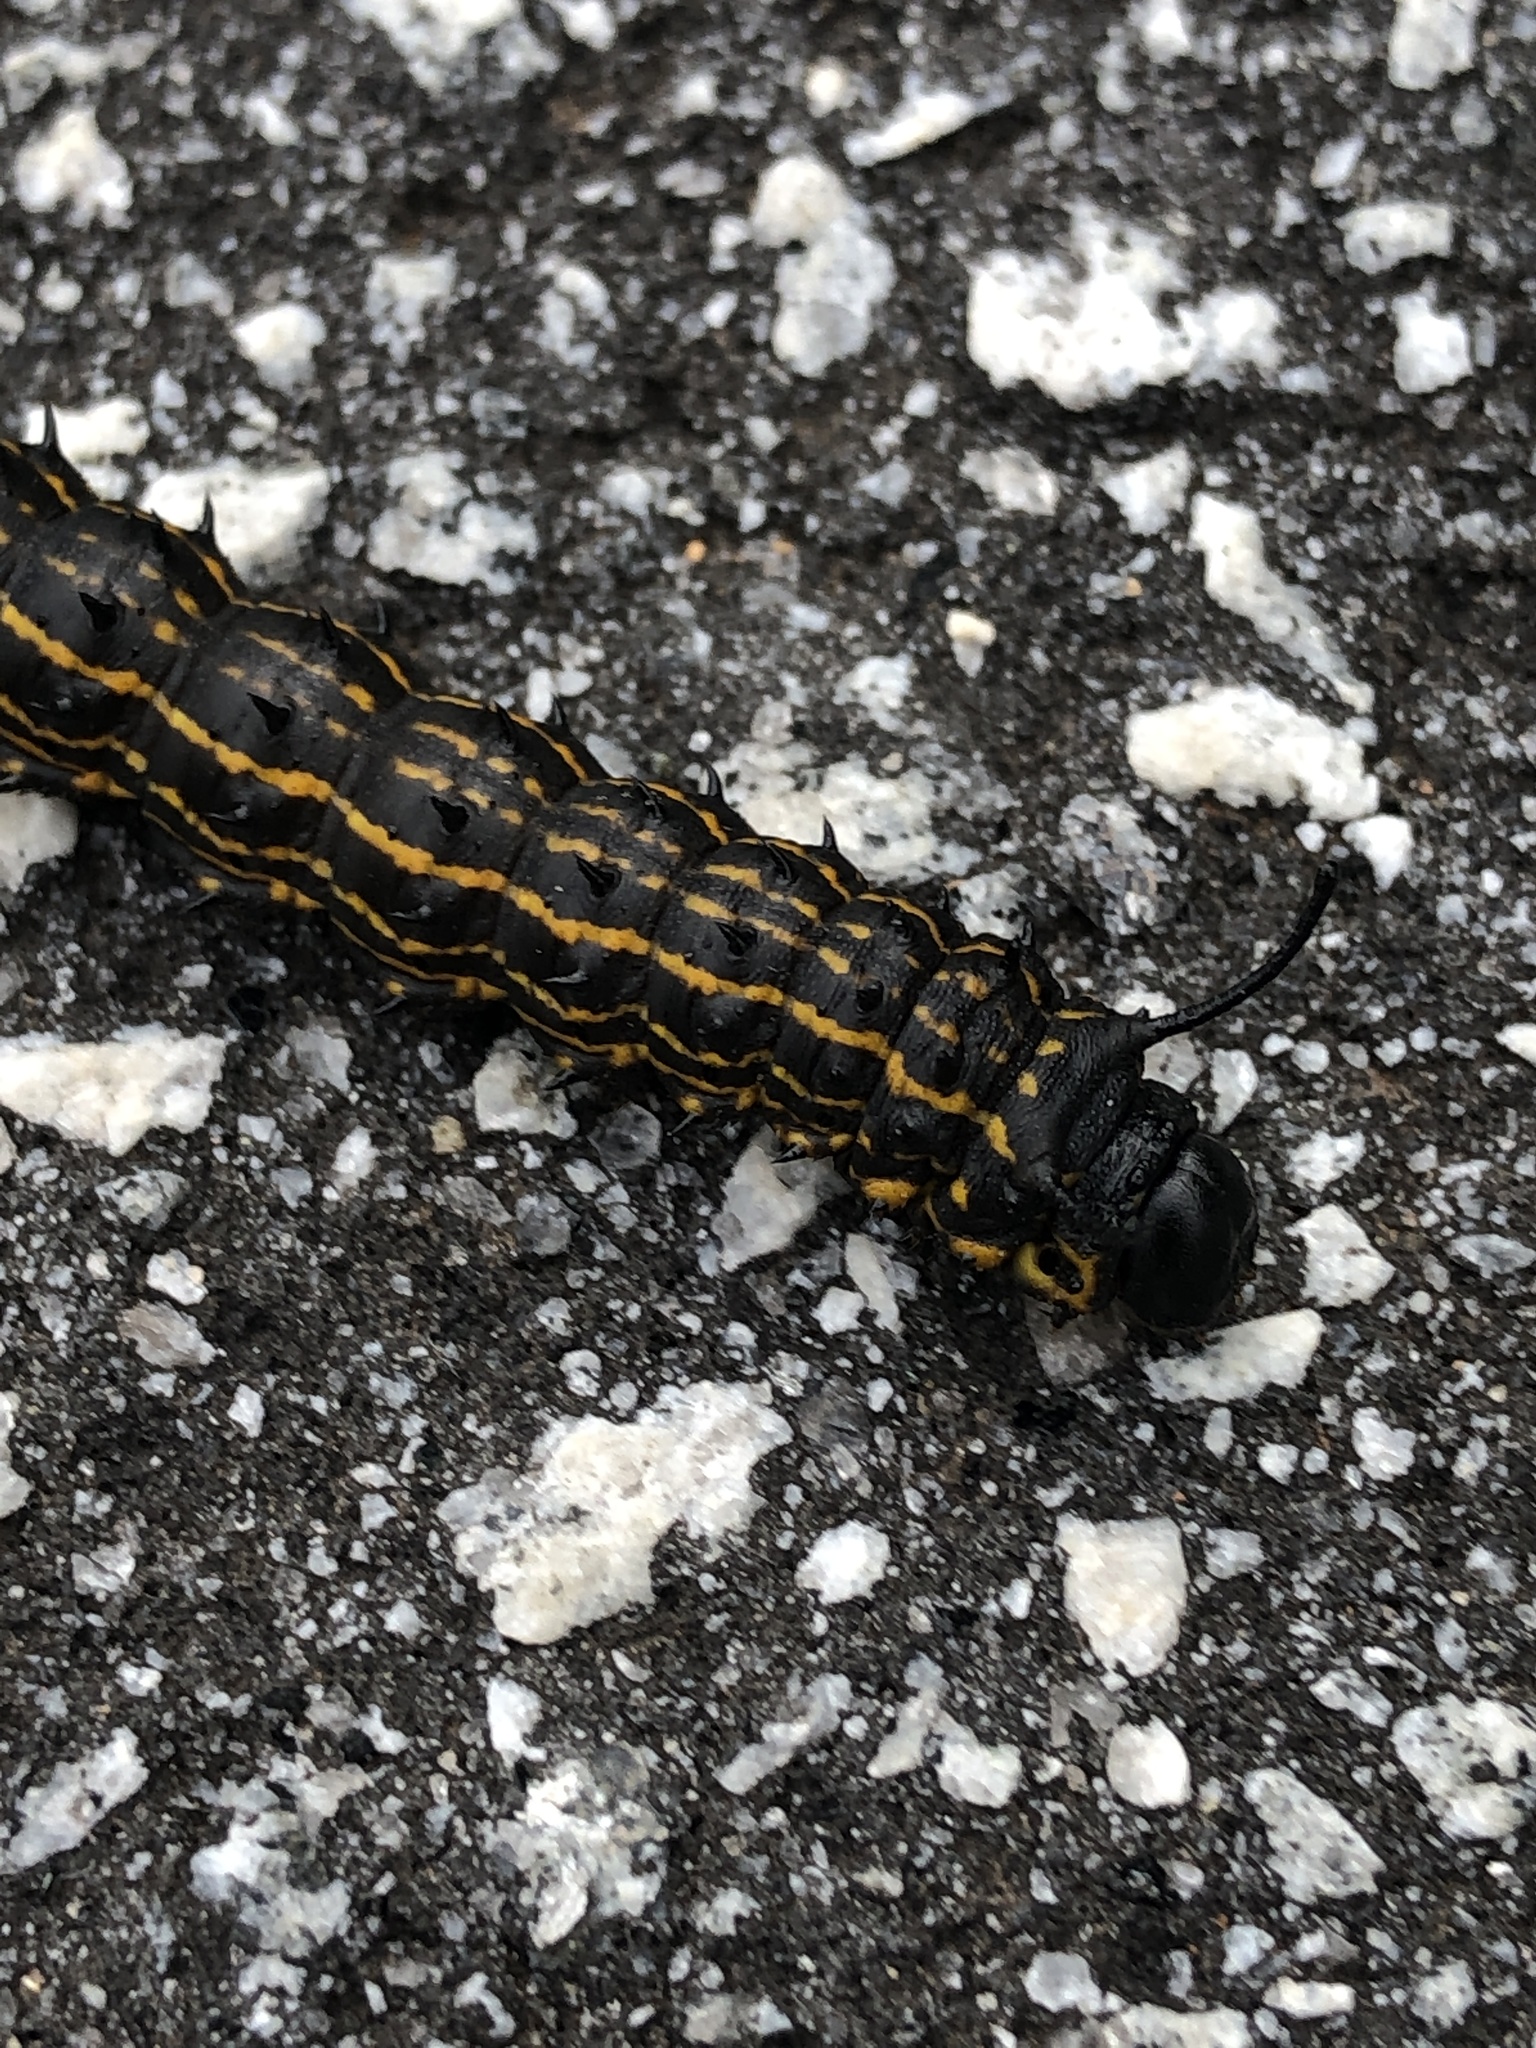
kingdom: Animalia
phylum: Arthropoda
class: Insecta
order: Lepidoptera
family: Saturniidae
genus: Anisota
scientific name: Anisota peigleri
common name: Peigler's oakworm moth
